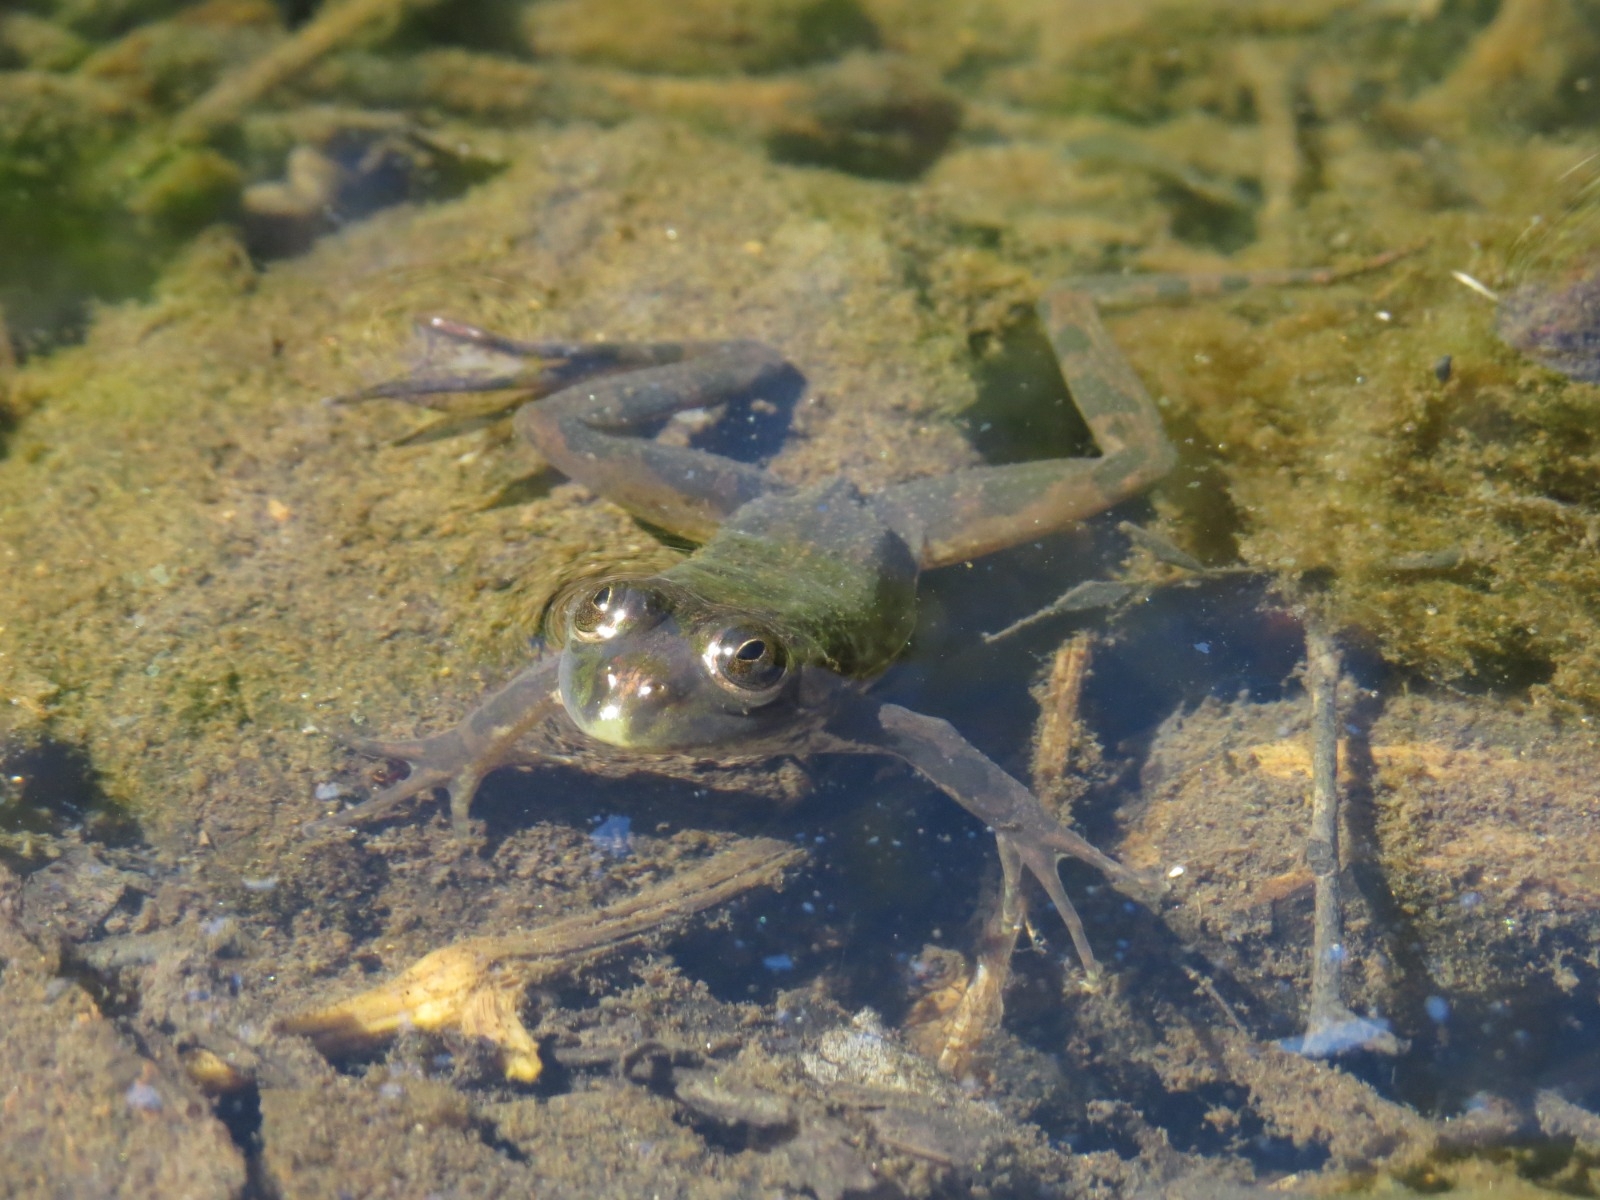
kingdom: Animalia
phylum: Chordata
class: Amphibia
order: Anura
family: Hylidae
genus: Pseudis
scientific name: Pseudis minuta
